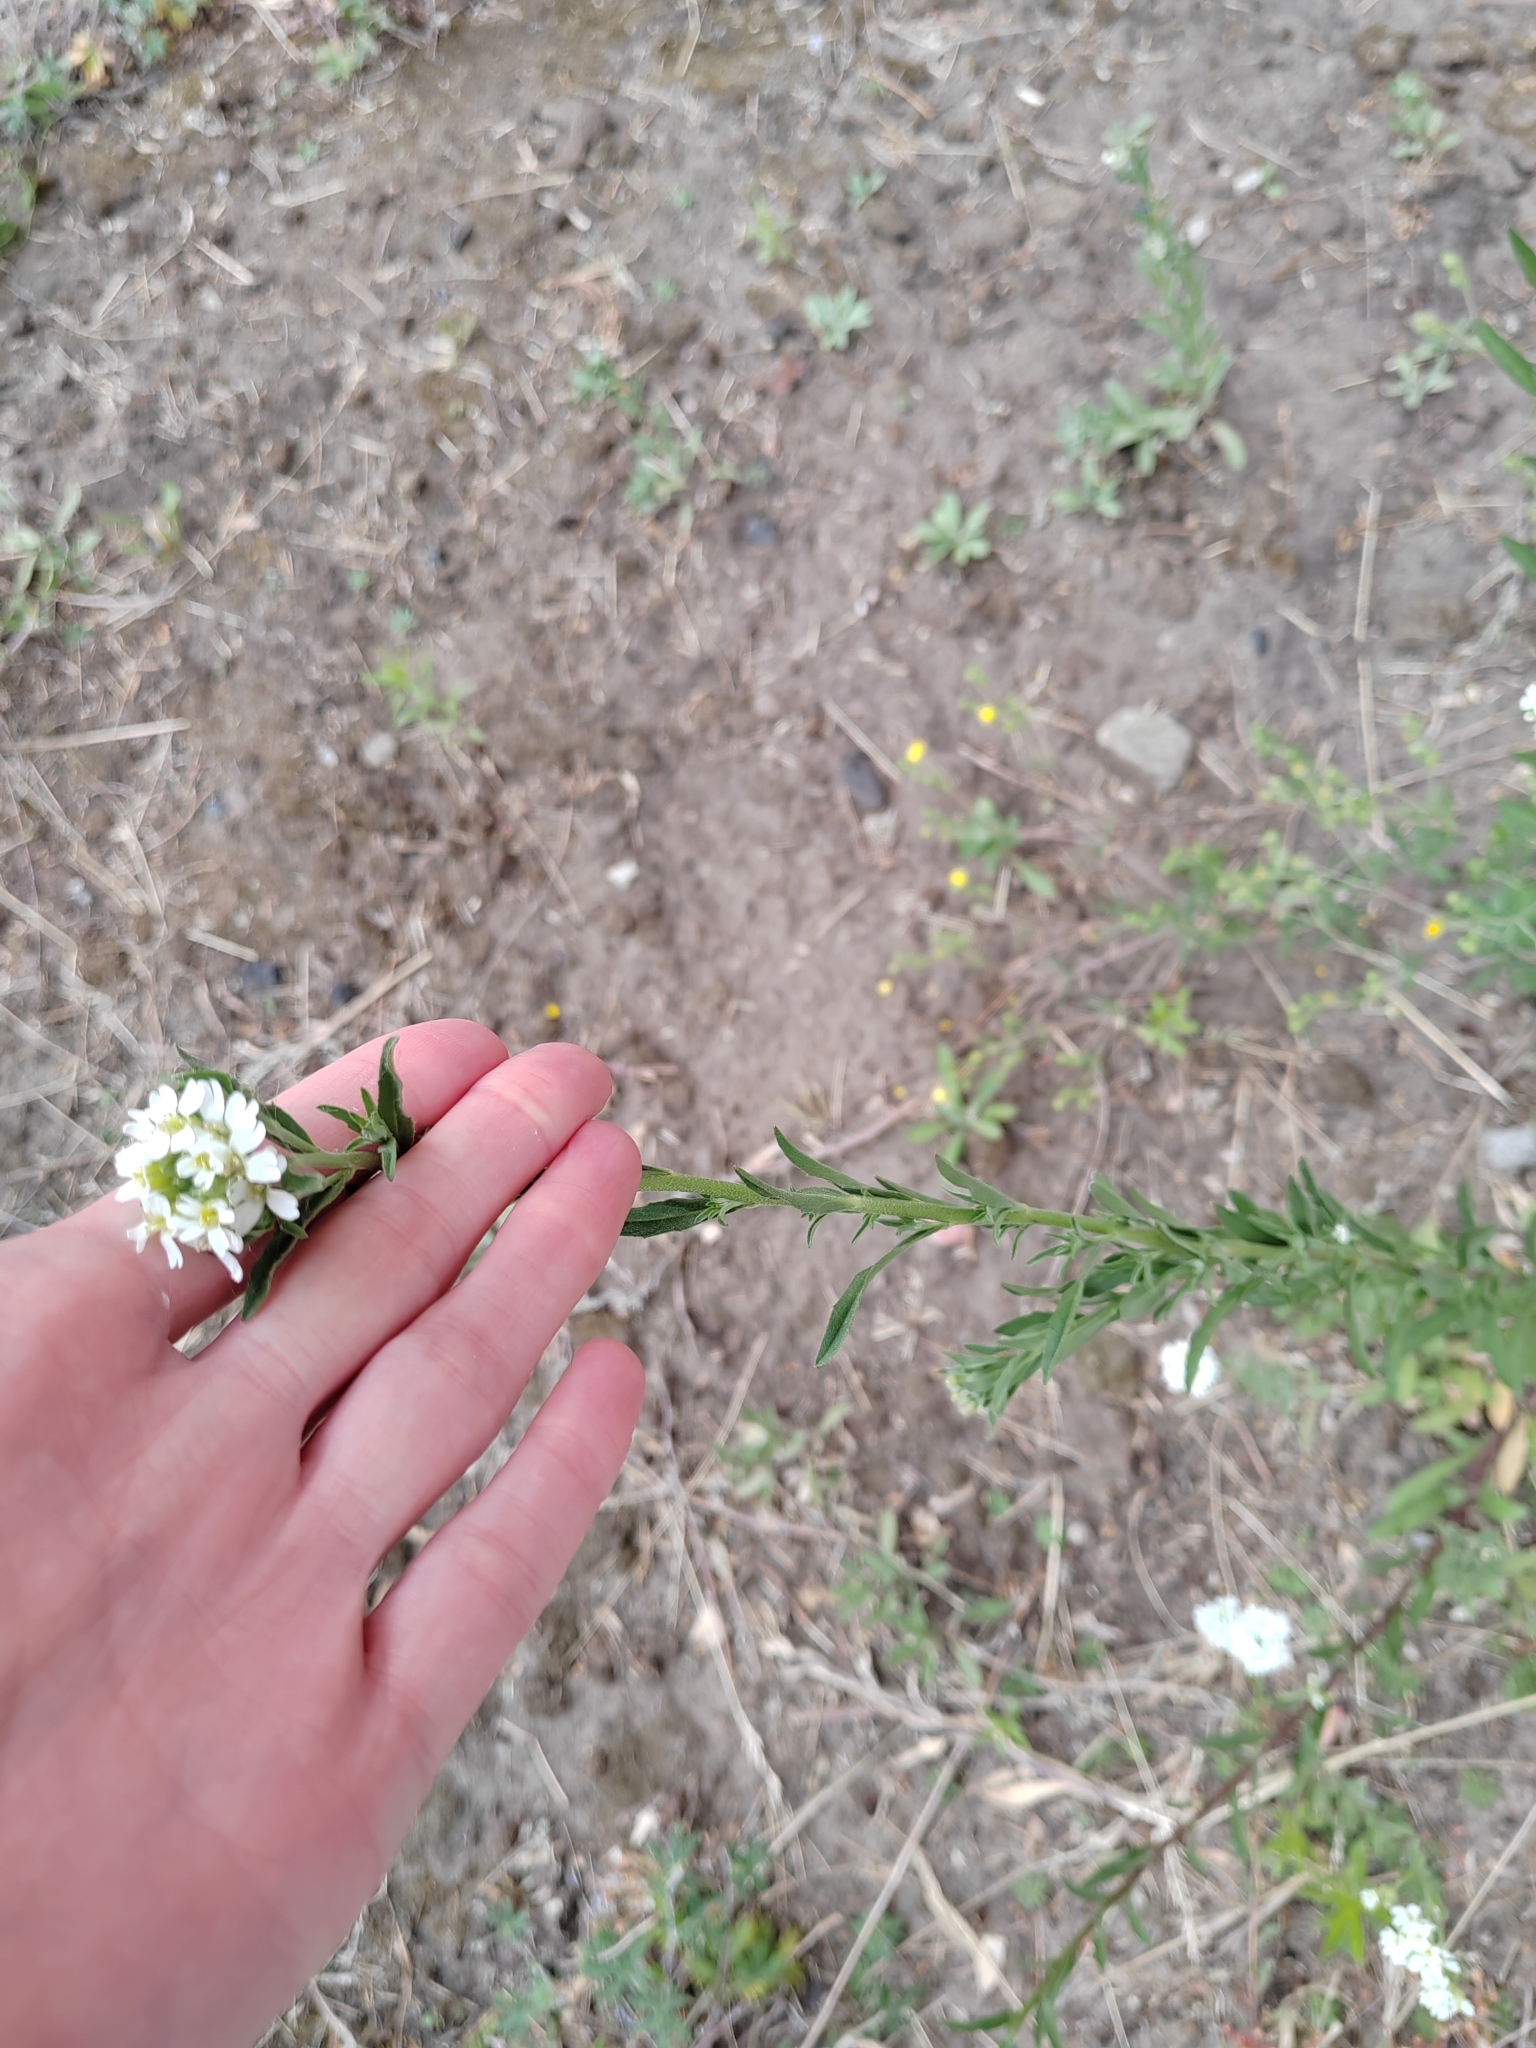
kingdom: Plantae
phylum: Tracheophyta
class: Magnoliopsida
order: Brassicales
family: Brassicaceae
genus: Berteroa
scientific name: Berteroa incana
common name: Hoary alison
